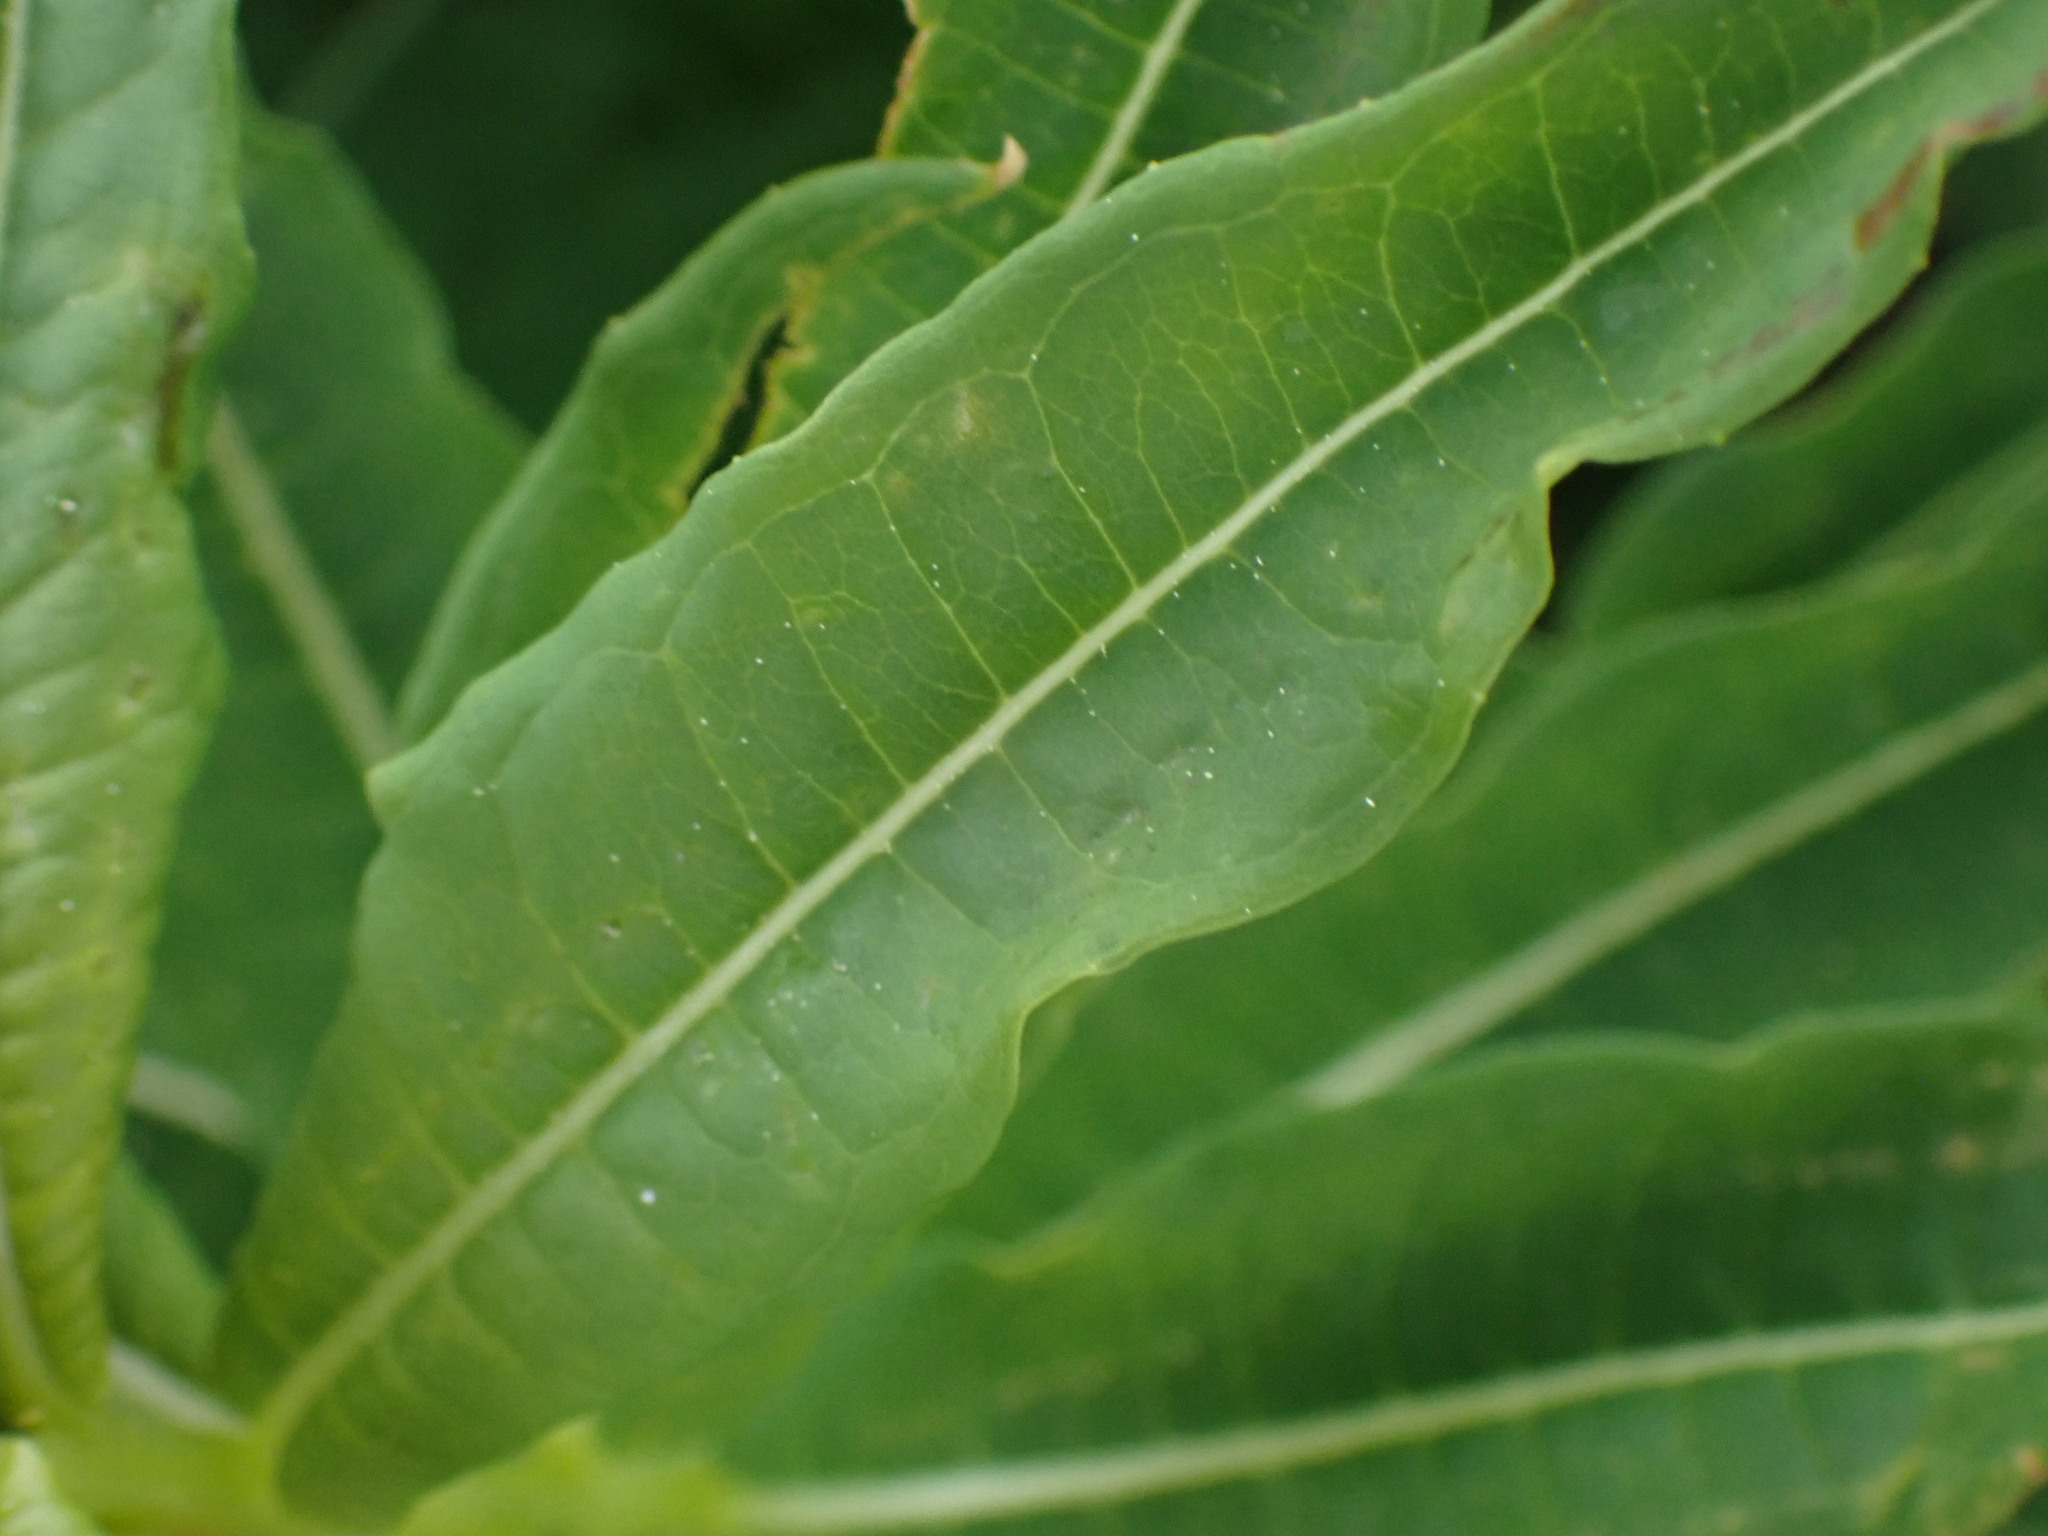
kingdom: Plantae
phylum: Tracheophyta
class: Magnoliopsida
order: Myrtales
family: Onagraceae
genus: Chamaenerion
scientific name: Chamaenerion angustifolium
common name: Fireweed
